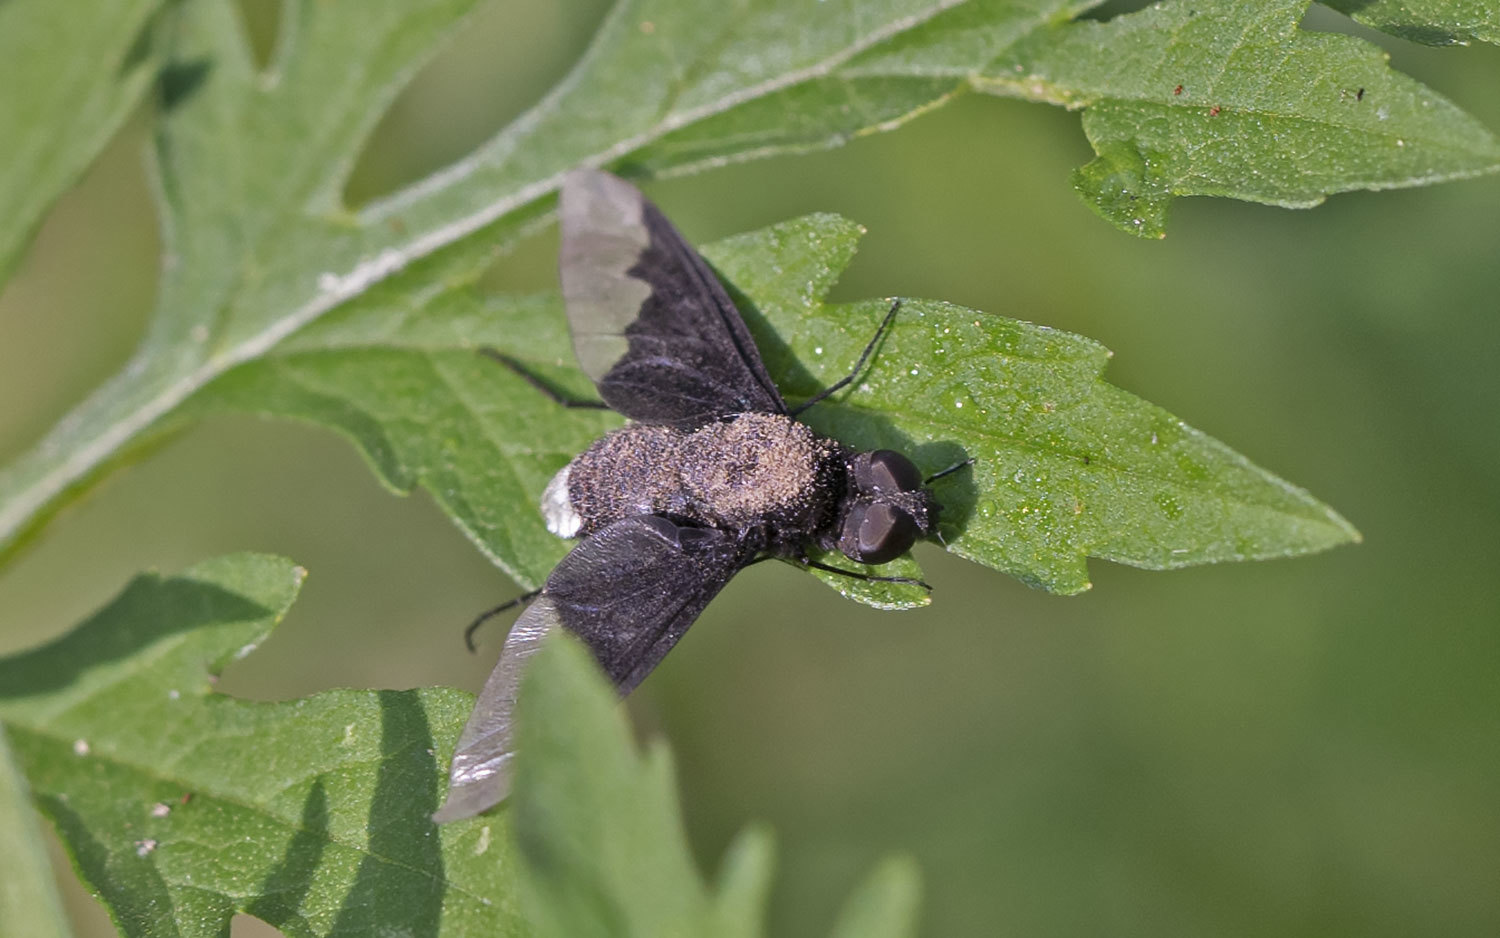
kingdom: Animalia
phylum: Arthropoda
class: Insecta
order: Diptera
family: Bombyliidae
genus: Anthrax
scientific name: Anthrax analis
